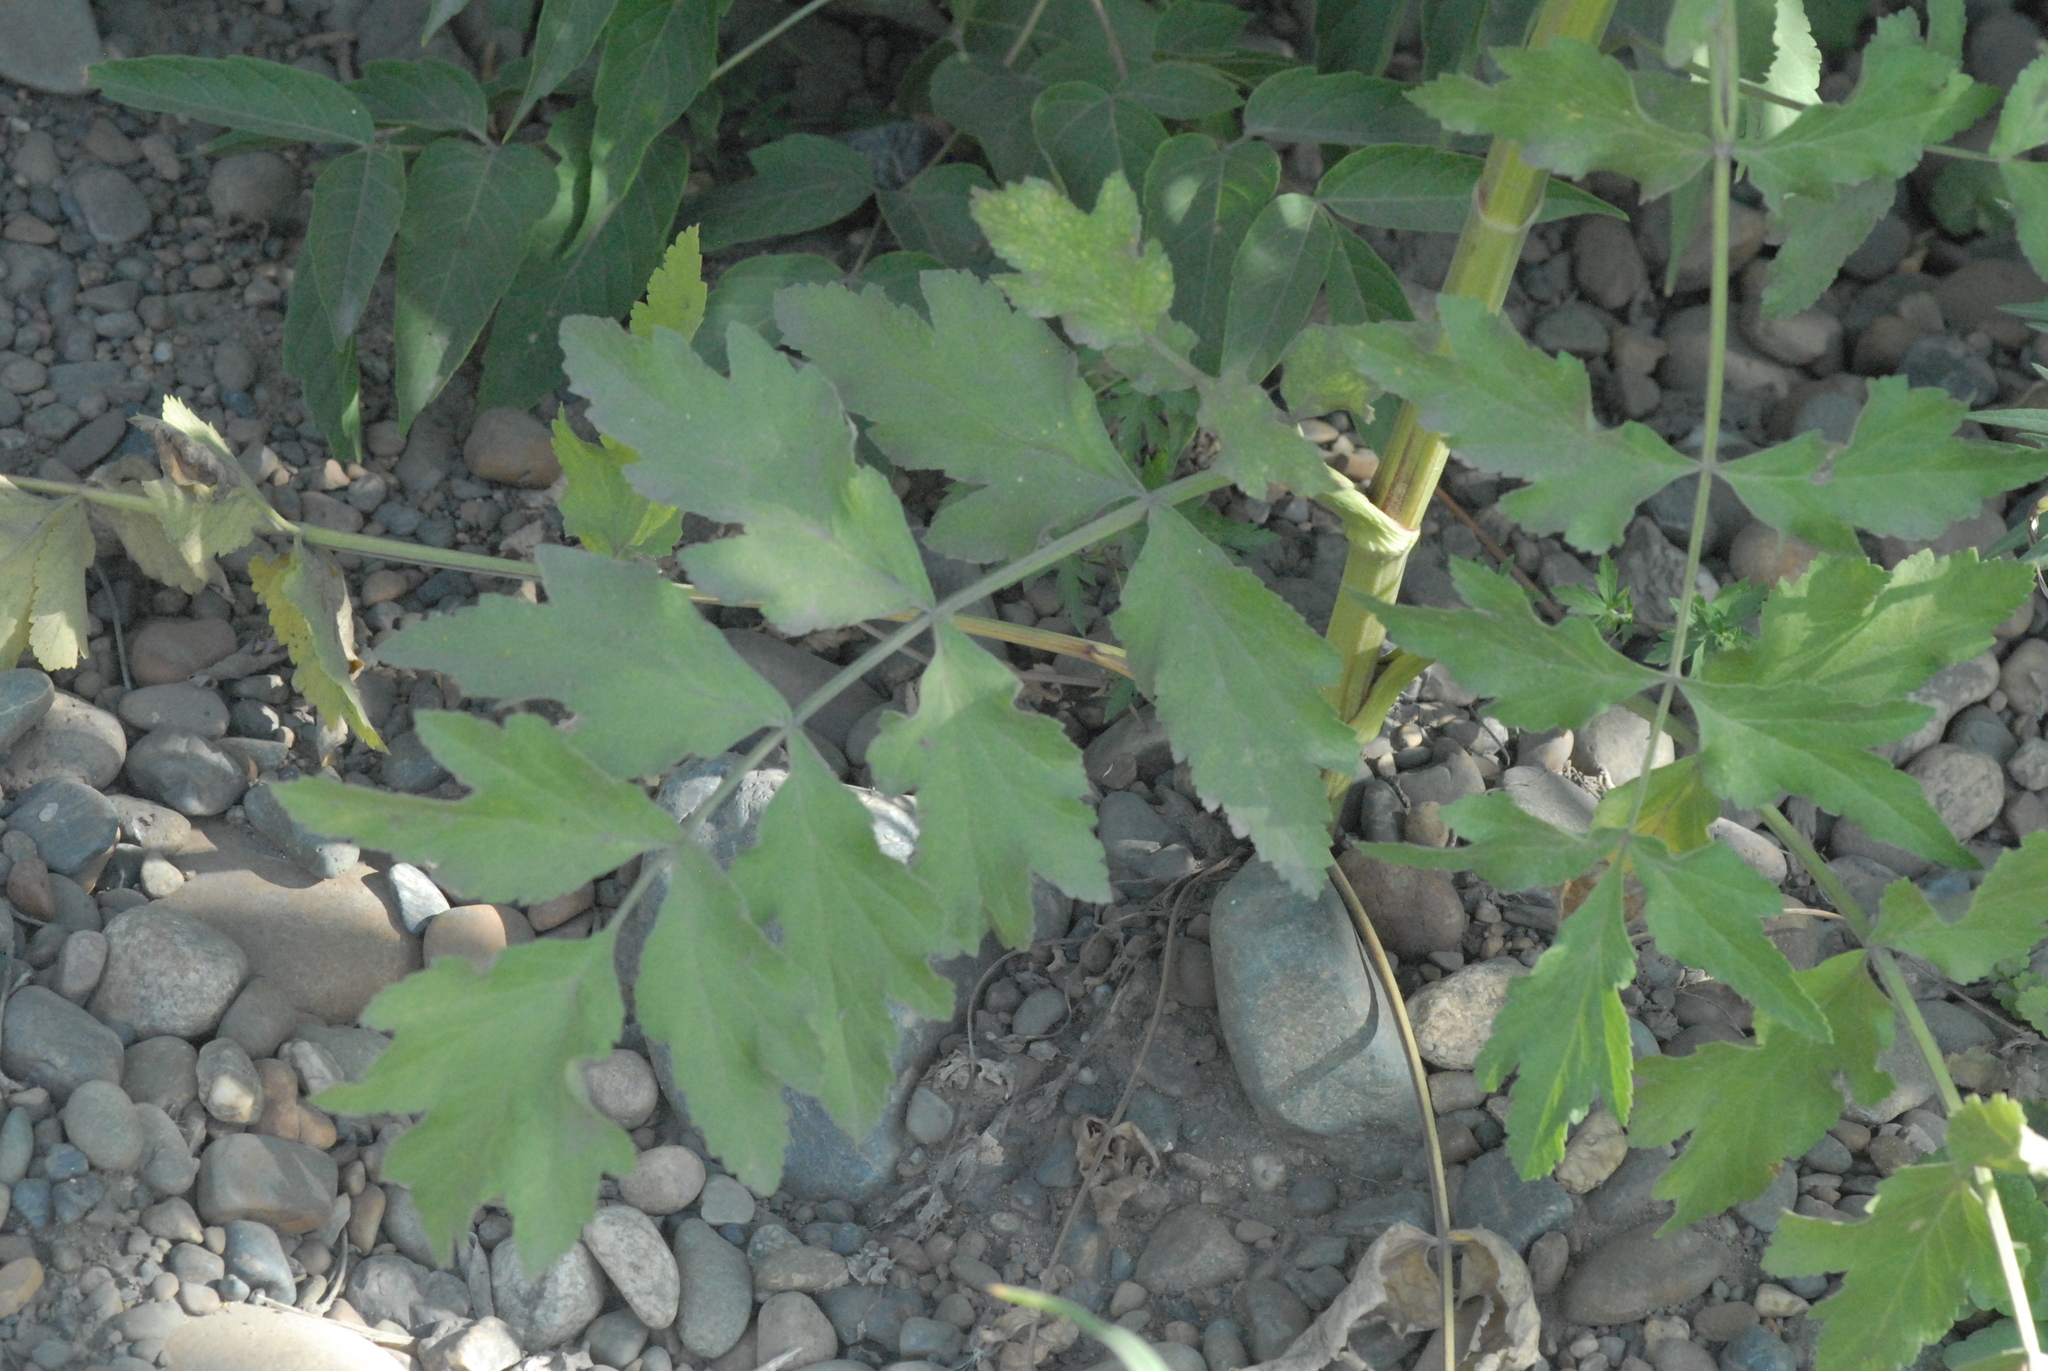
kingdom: Plantae
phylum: Tracheophyta
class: Magnoliopsida
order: Apiales
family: Apiaceae
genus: Pastinaca
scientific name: Pastinaca sativa
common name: Wild parsnip
